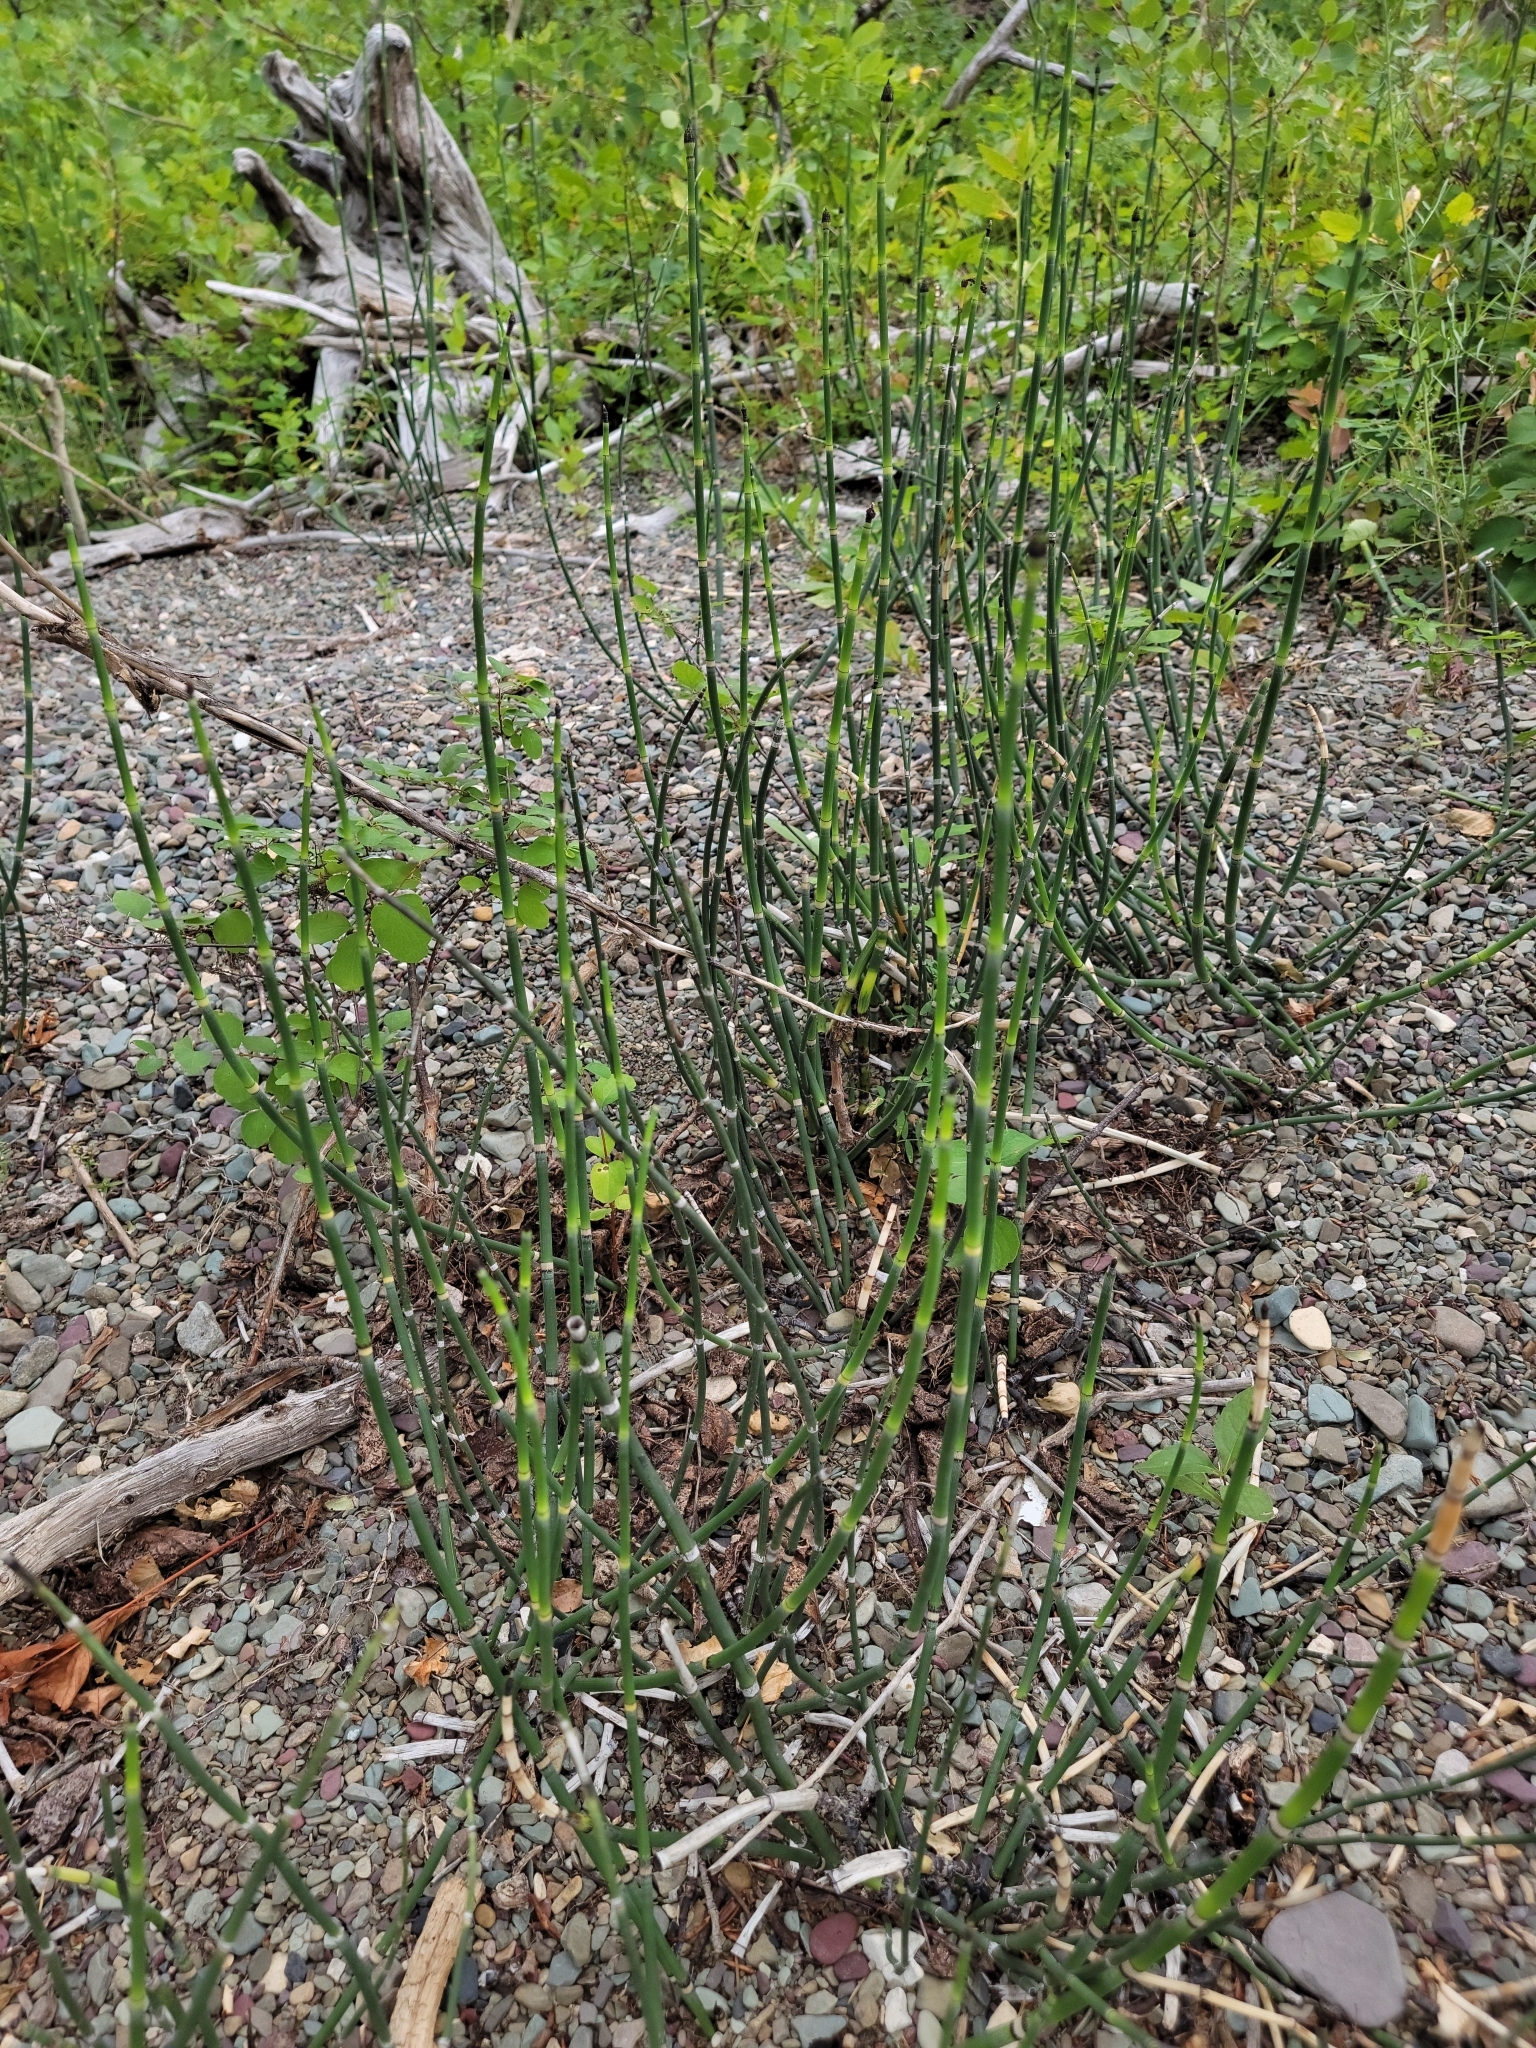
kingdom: Plantae
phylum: Tracheophyta
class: Polypodiopsida
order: Equisetales
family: Equisetaceae
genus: Equisetum
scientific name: Equisetum praealtum
